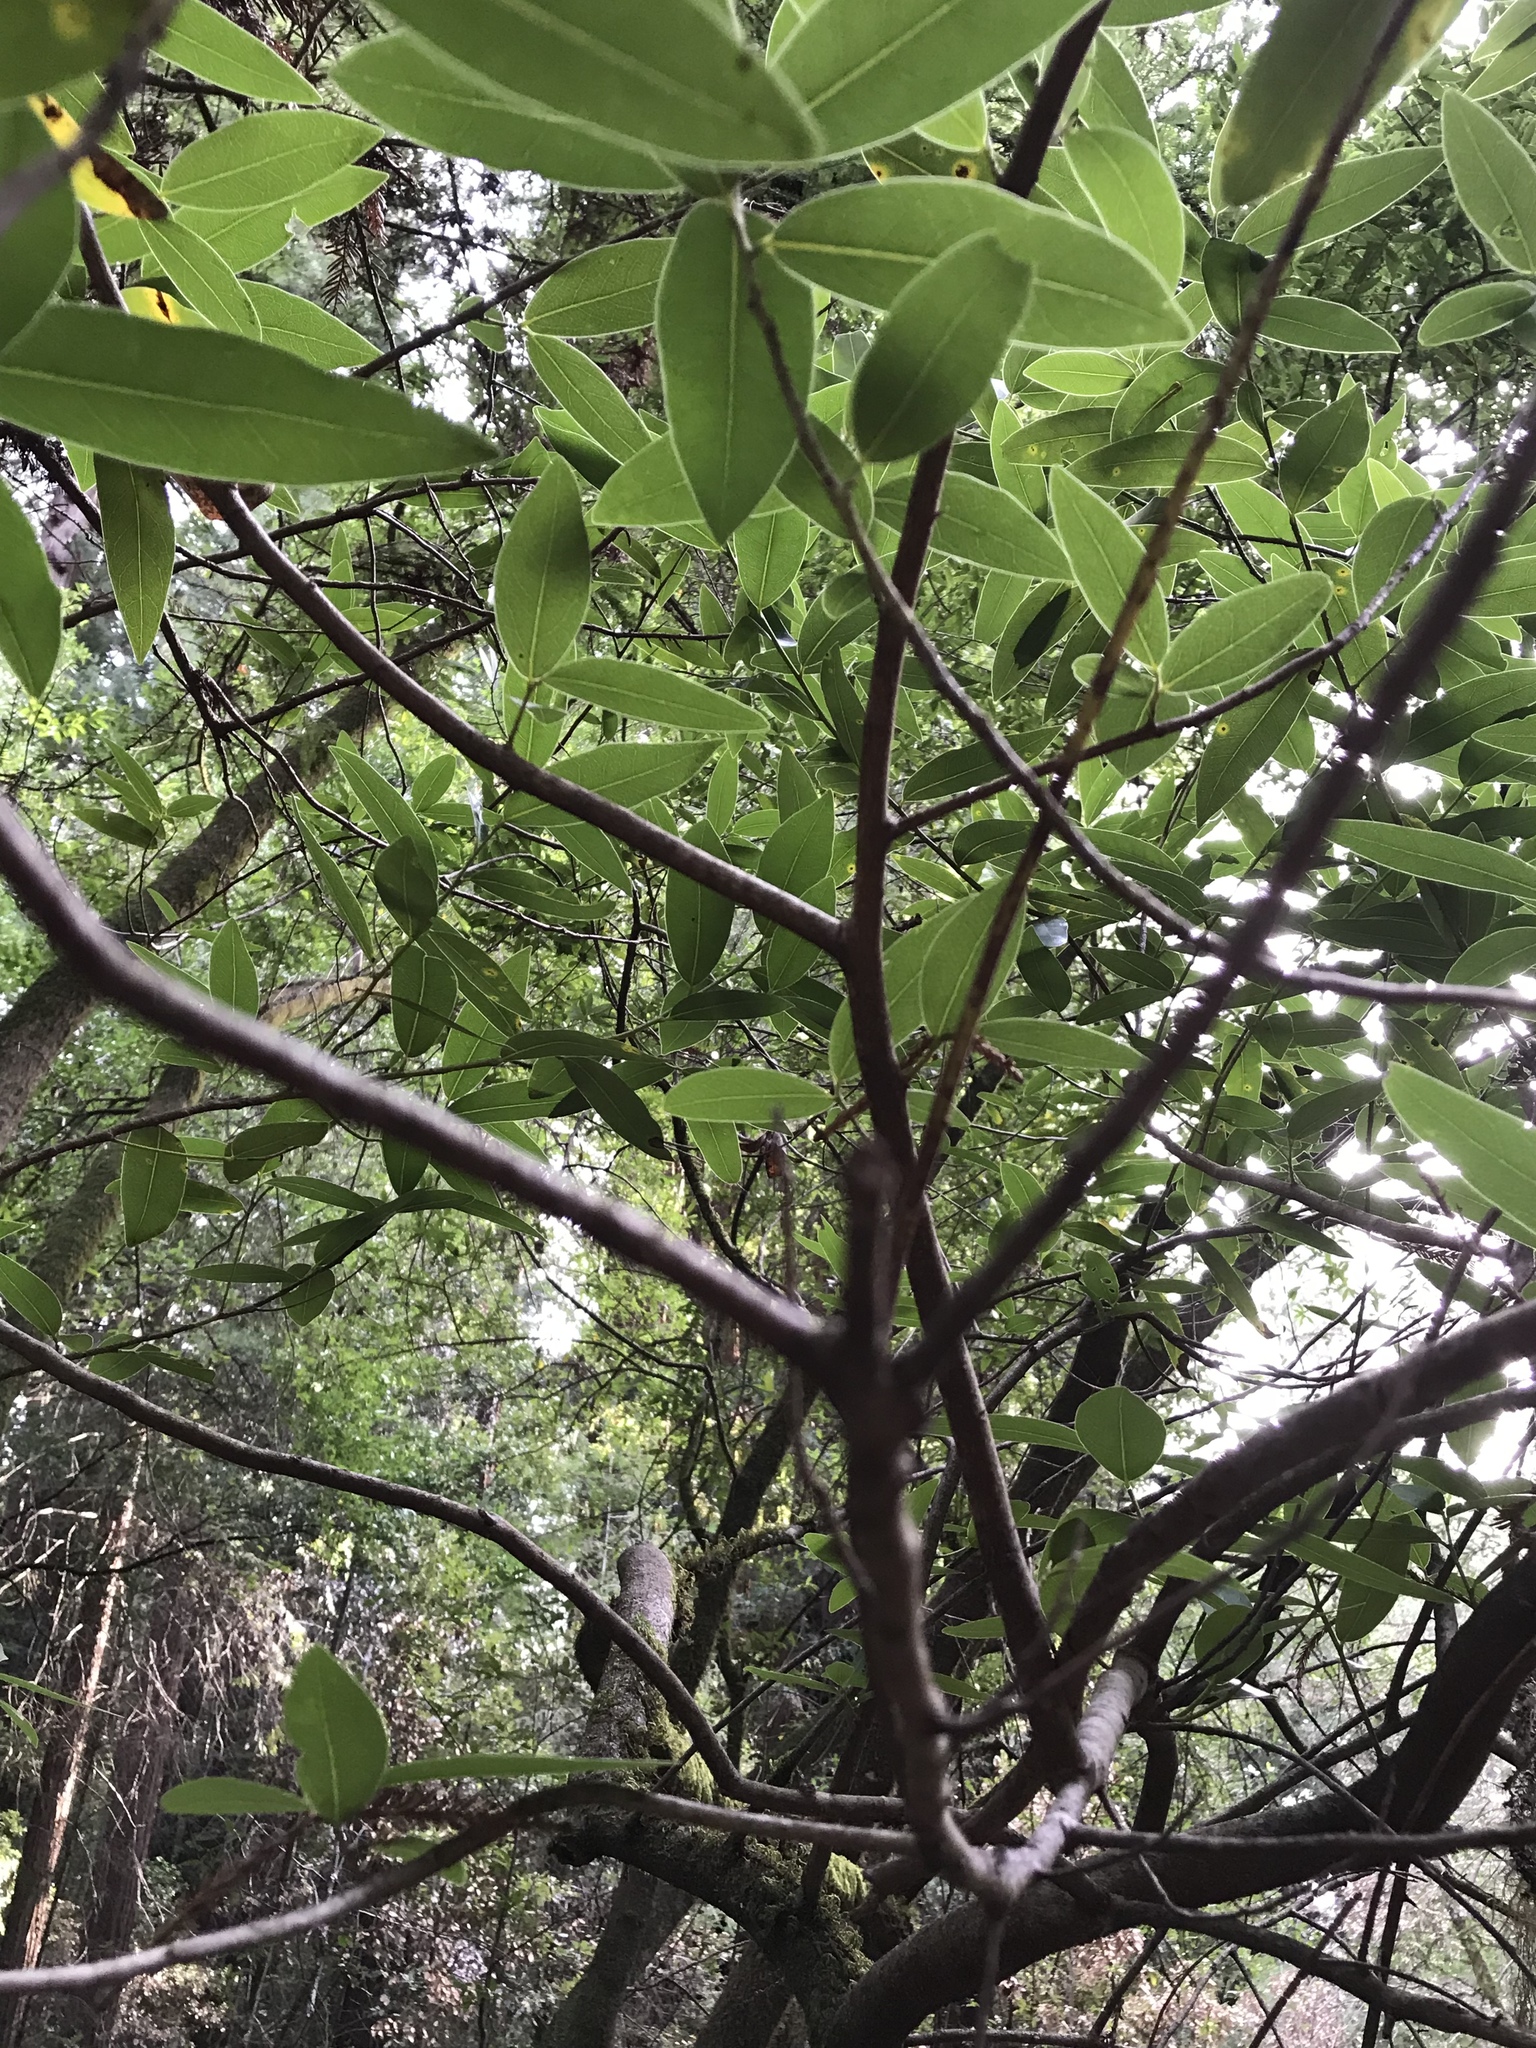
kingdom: Plantae
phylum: Tracheophyta
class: Magnoliopsida
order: Laurales
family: Lauraceae
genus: Umbellularia
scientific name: Umbellularia californica
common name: California bay
